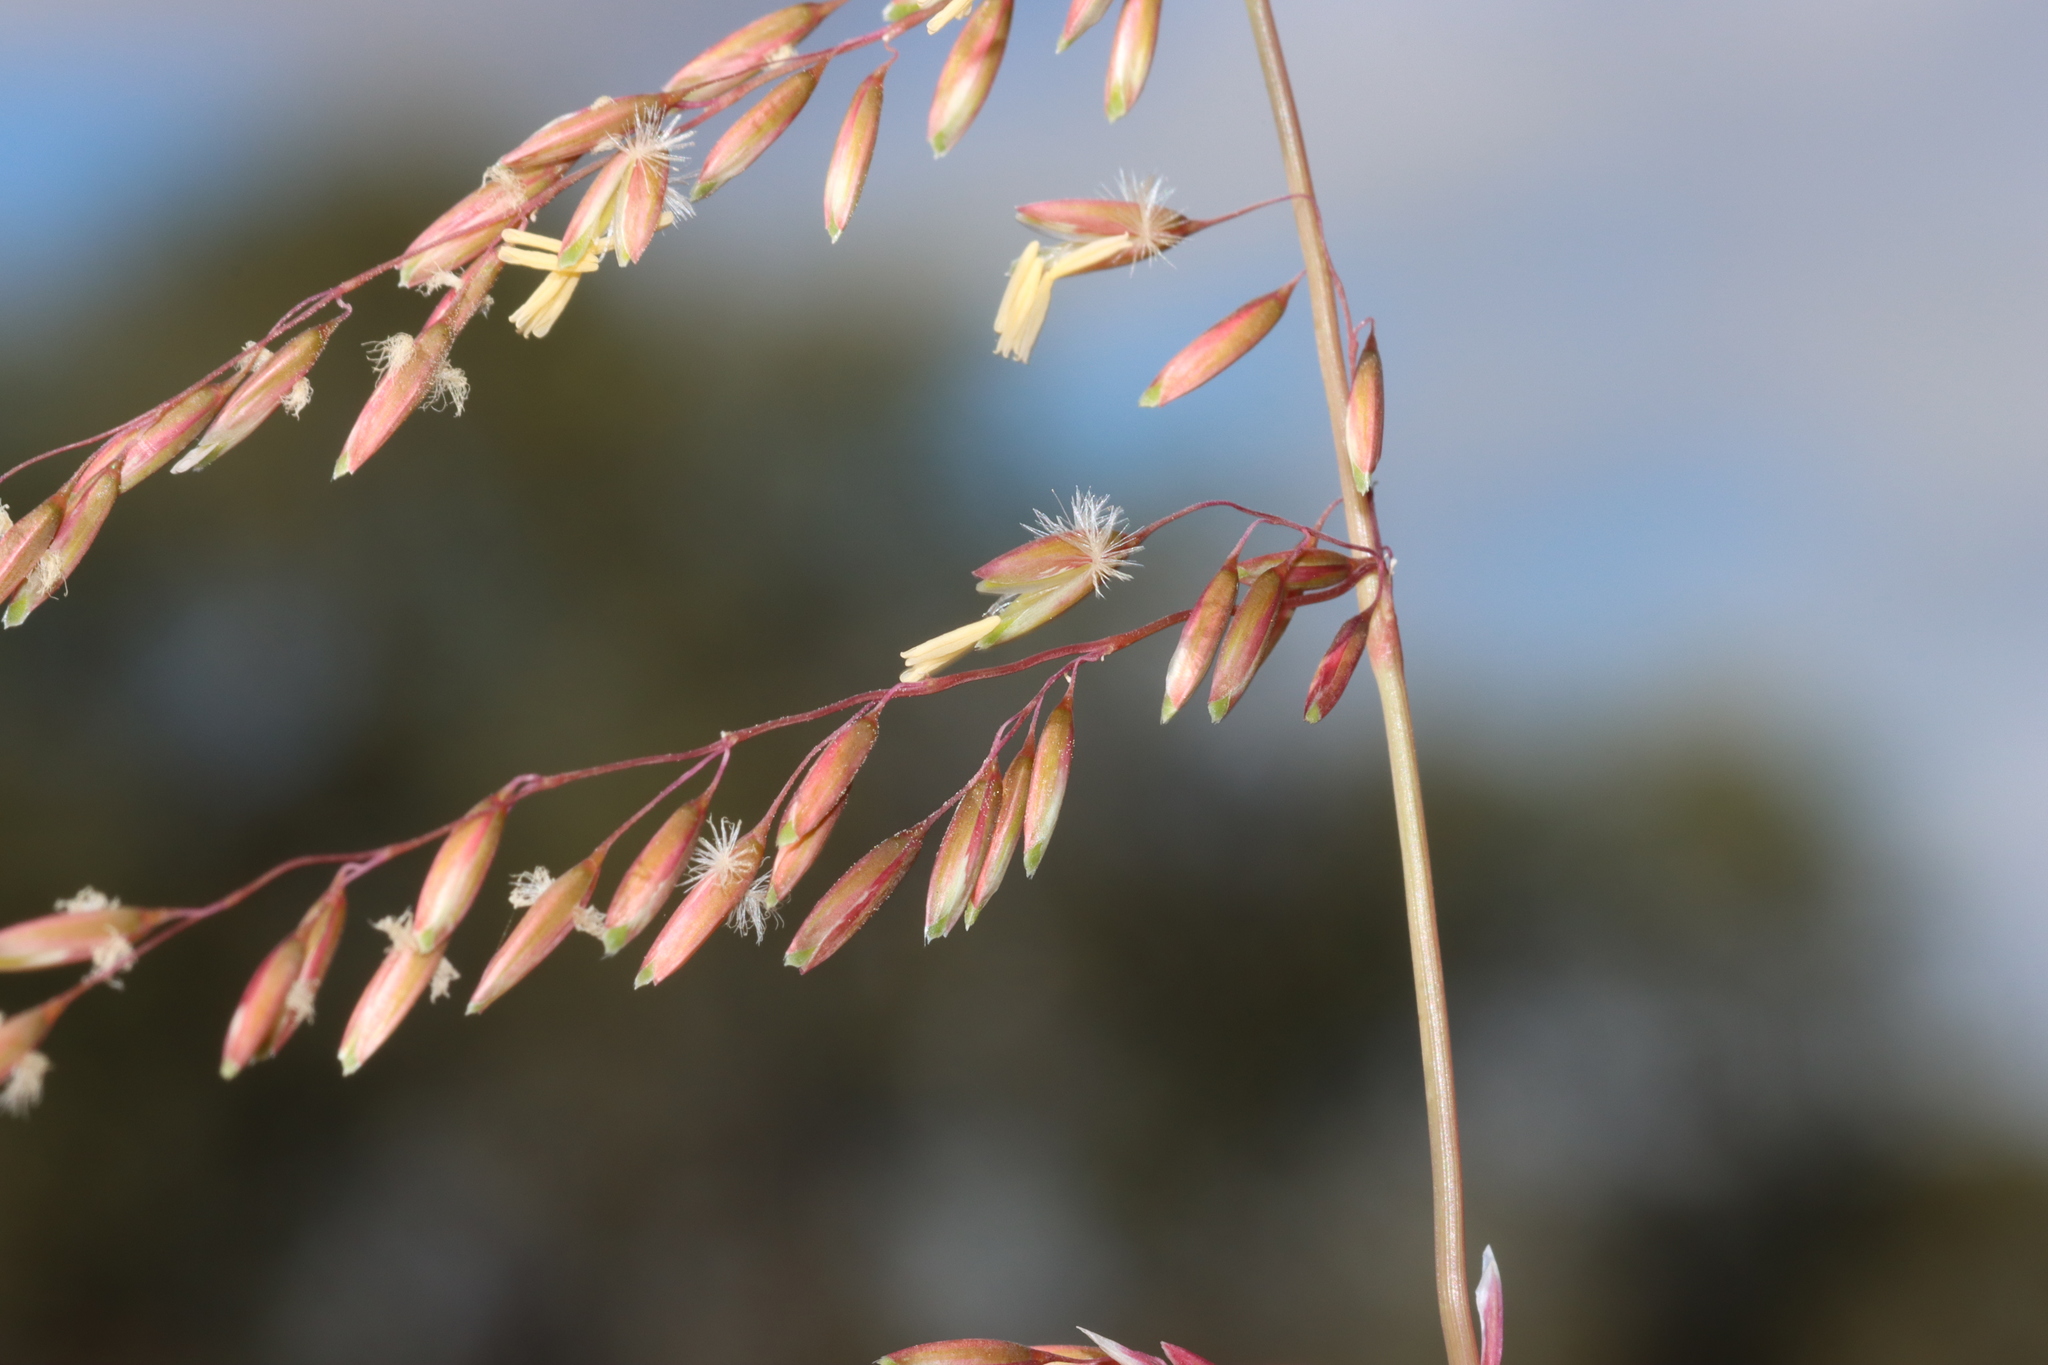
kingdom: Plantae
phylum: Tracheophyta
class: Liliopsida
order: Poales
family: Poaceae
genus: Ehrharta
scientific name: Ehrharta calycina
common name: Perennial veldtgrass
